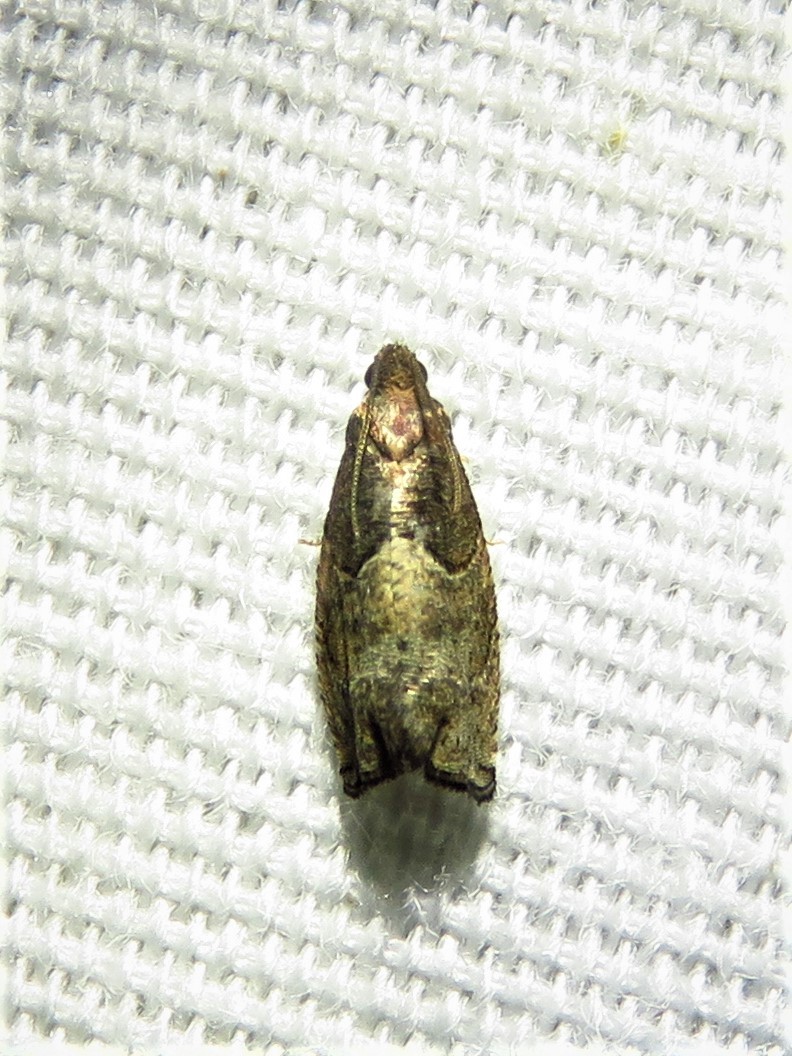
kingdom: Animalia
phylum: Arthropoda
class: Insecta
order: Lepidoptera
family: Tortricidae
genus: Gypsonoma
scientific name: Gypsonoma salicicolana
